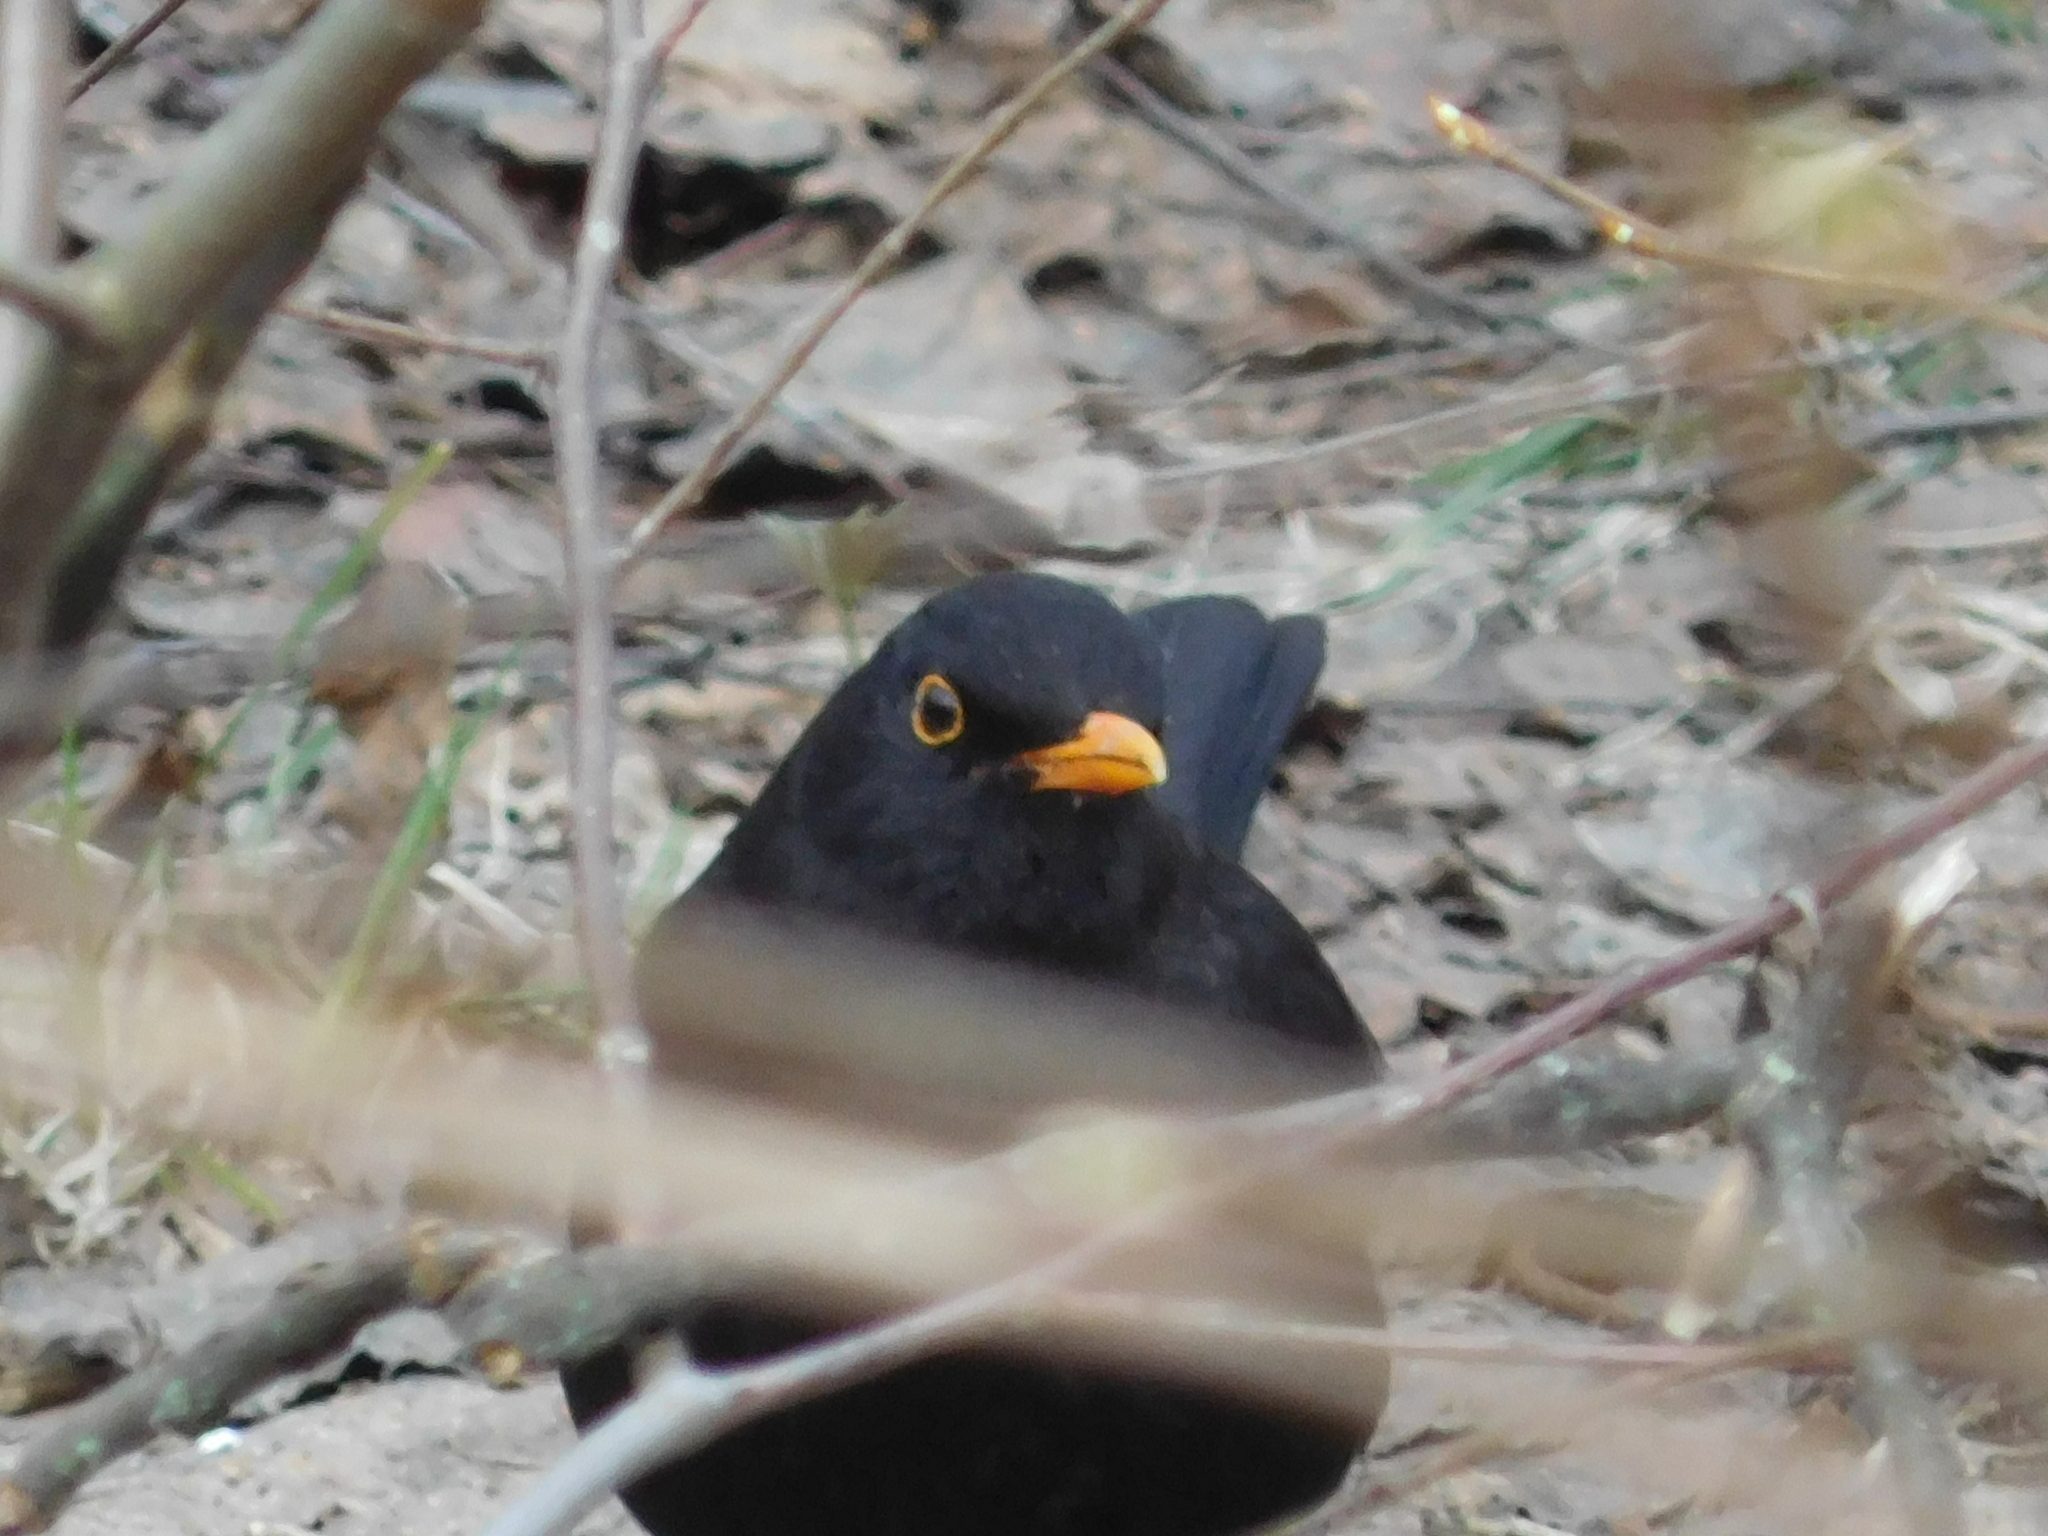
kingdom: Animalia
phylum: Chordata
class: Aves
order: Passeriformes
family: Turdidae
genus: Turdus
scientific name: Turdus merula
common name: Common blackbird
